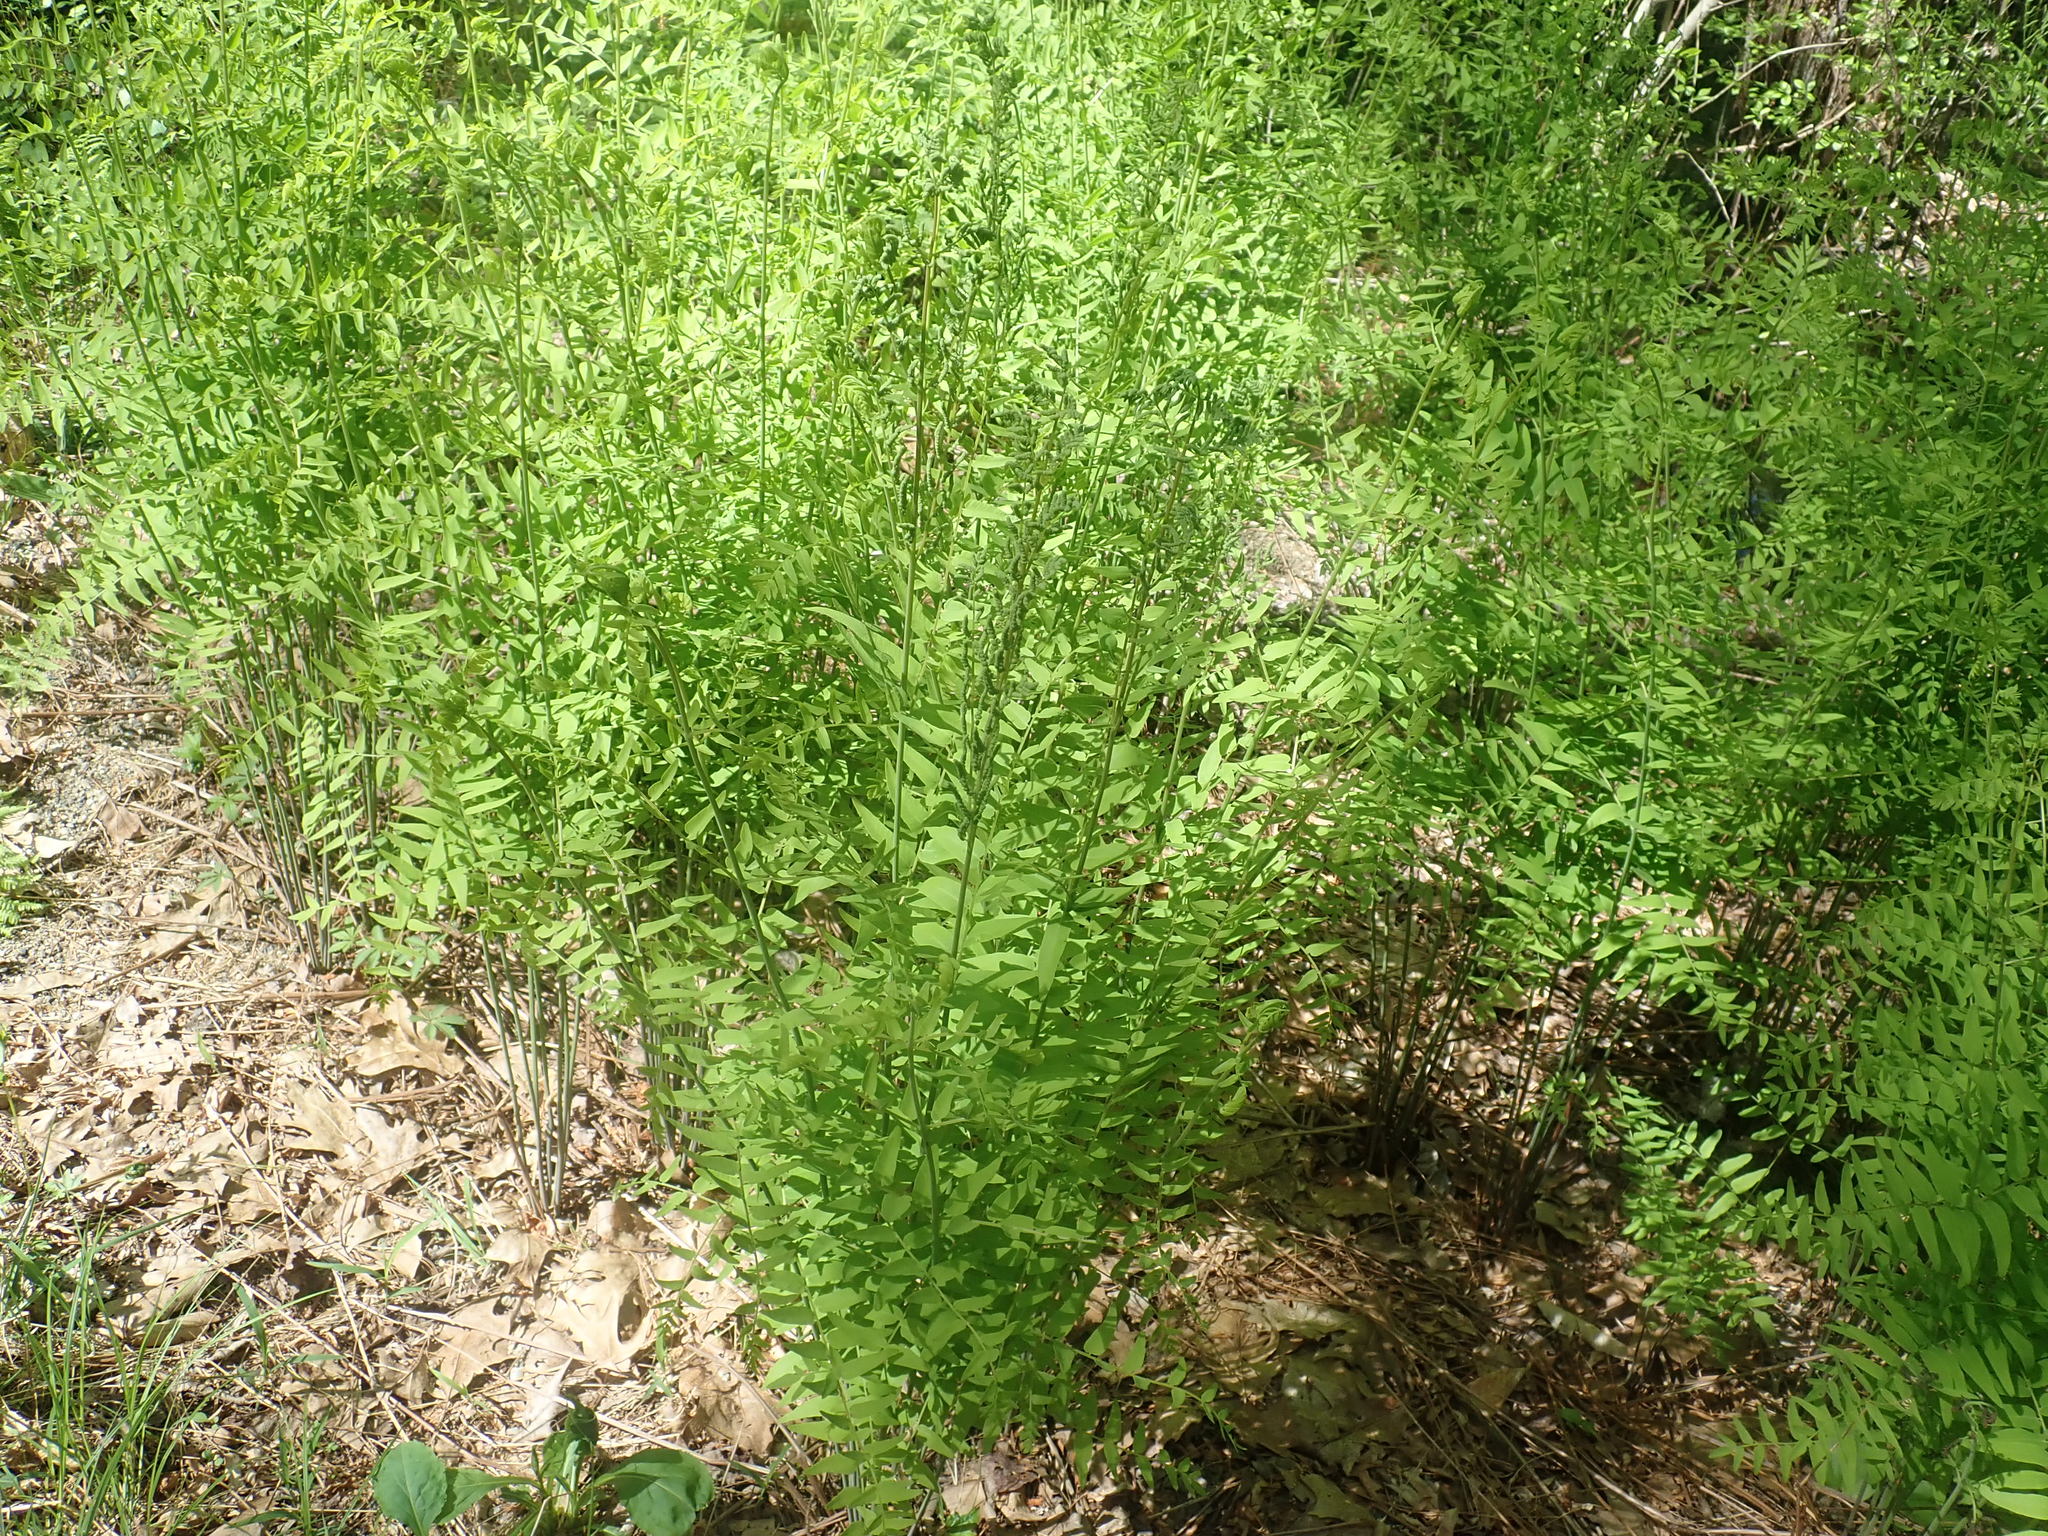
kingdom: Plantae
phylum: Tracheophyta
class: Polypodiopsida
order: Osmundales
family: Osmundaceae
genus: Osmunda
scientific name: Osmunda spectabilis
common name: American royal fern
